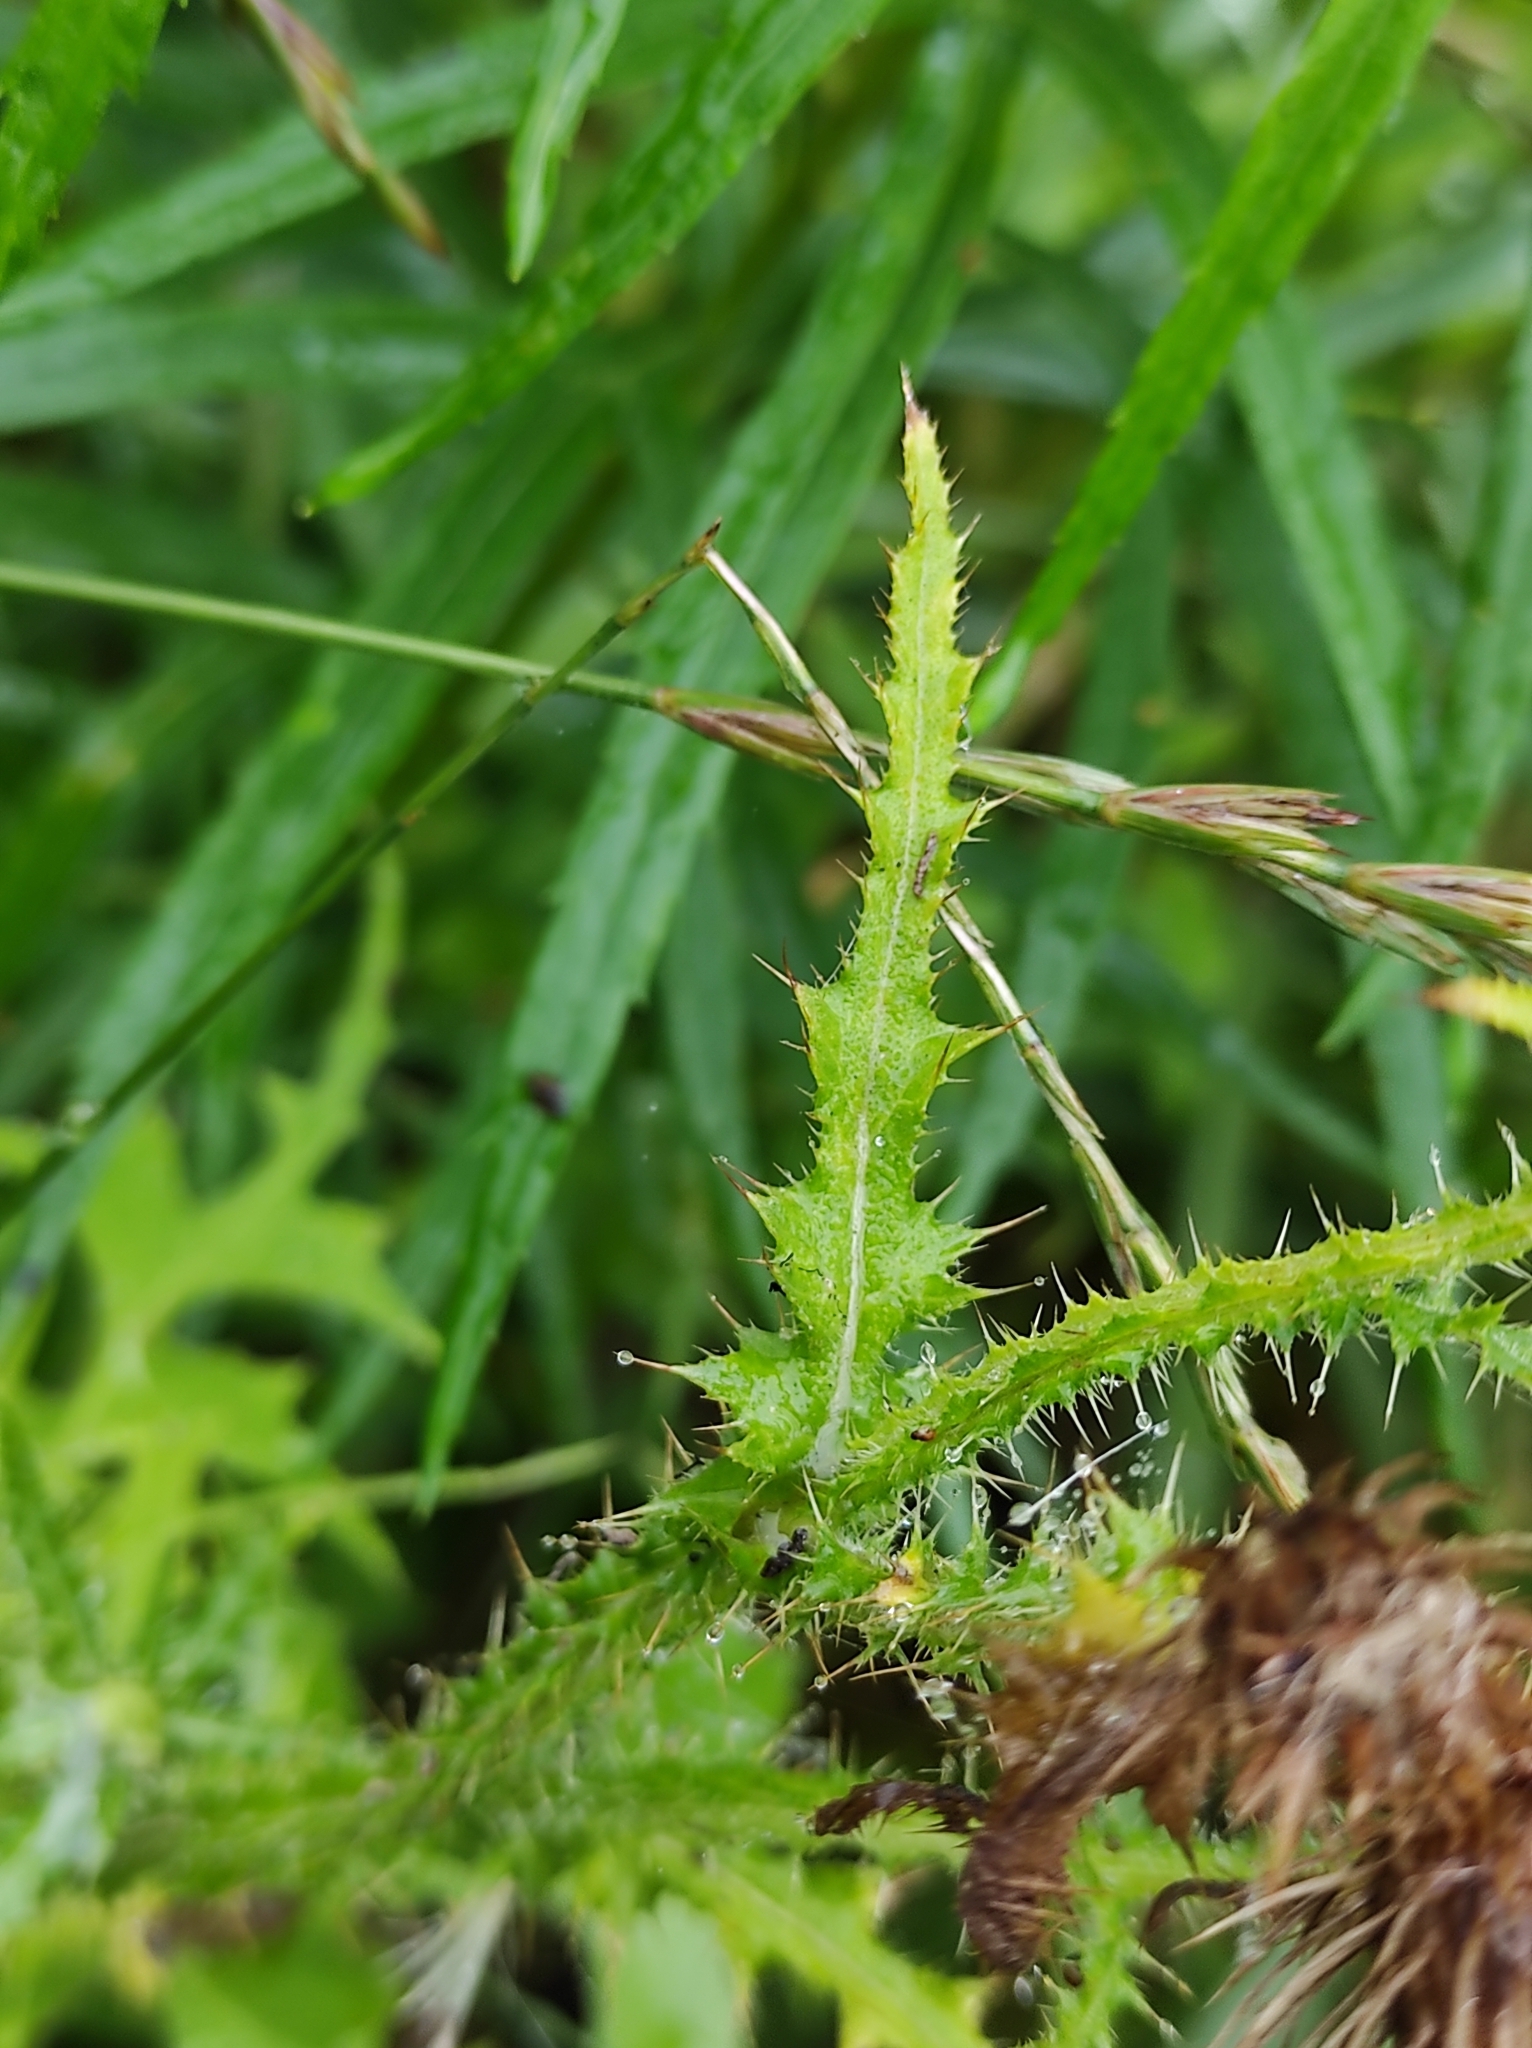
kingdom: Plantae
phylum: Tracheophyta
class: Magnoliopsida
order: Asterales
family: Asteraceae
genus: Carduus
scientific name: Carduus crispus
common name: Welted thistle
